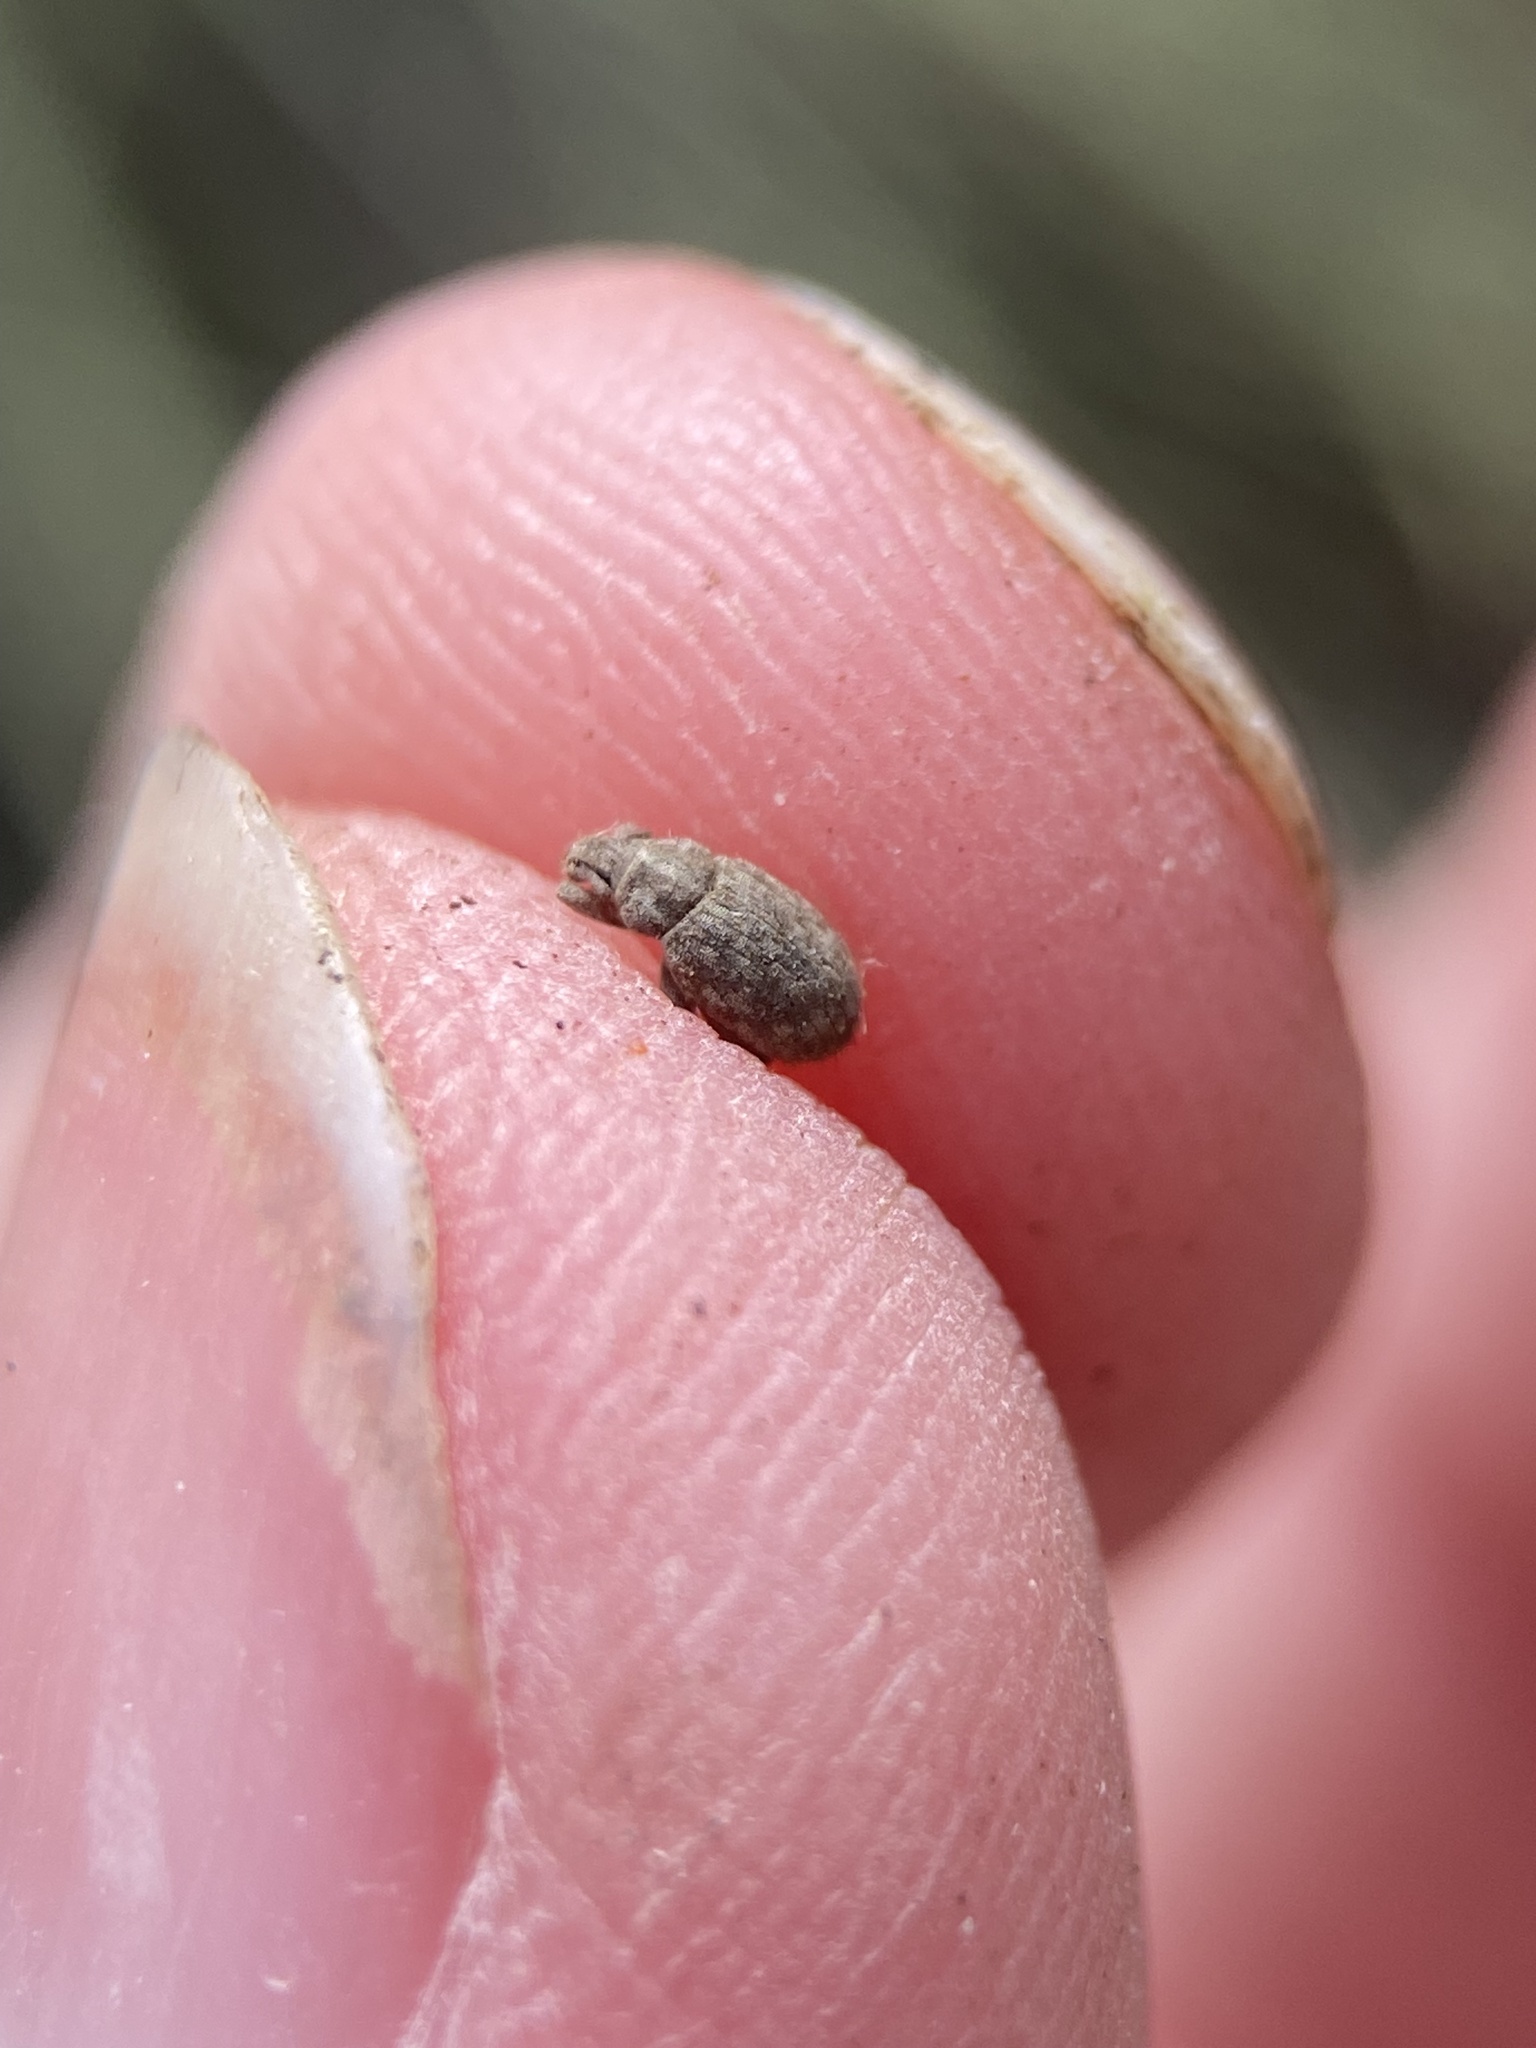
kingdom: Animalia
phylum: Arthropoda
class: Insecta
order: Coleoptera
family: Curculionidae
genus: Romualdius
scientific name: Romualdius scaber
